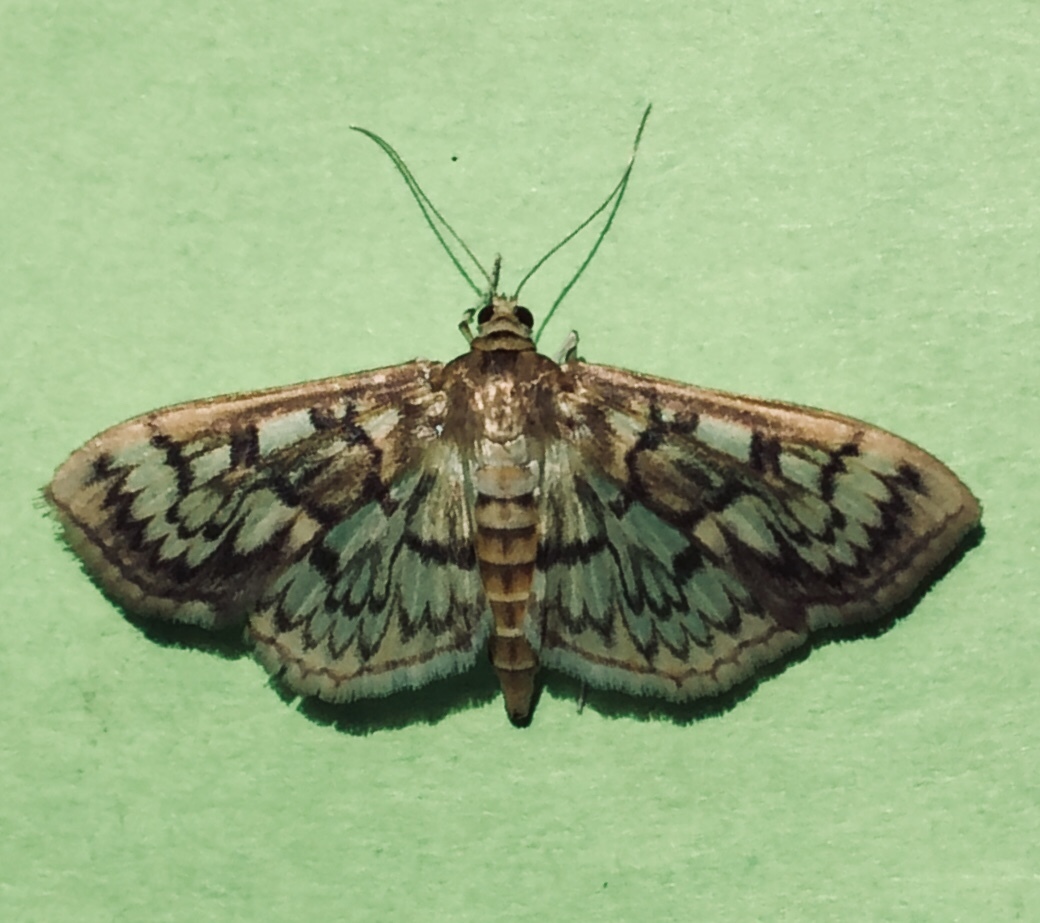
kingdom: Animalia
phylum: Arthropoda
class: Insecta
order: Lepidoptera
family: Crambidae
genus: Herpetogramma
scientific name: Herpetogramma thestealis
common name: Zigzag herpetogramma moth
